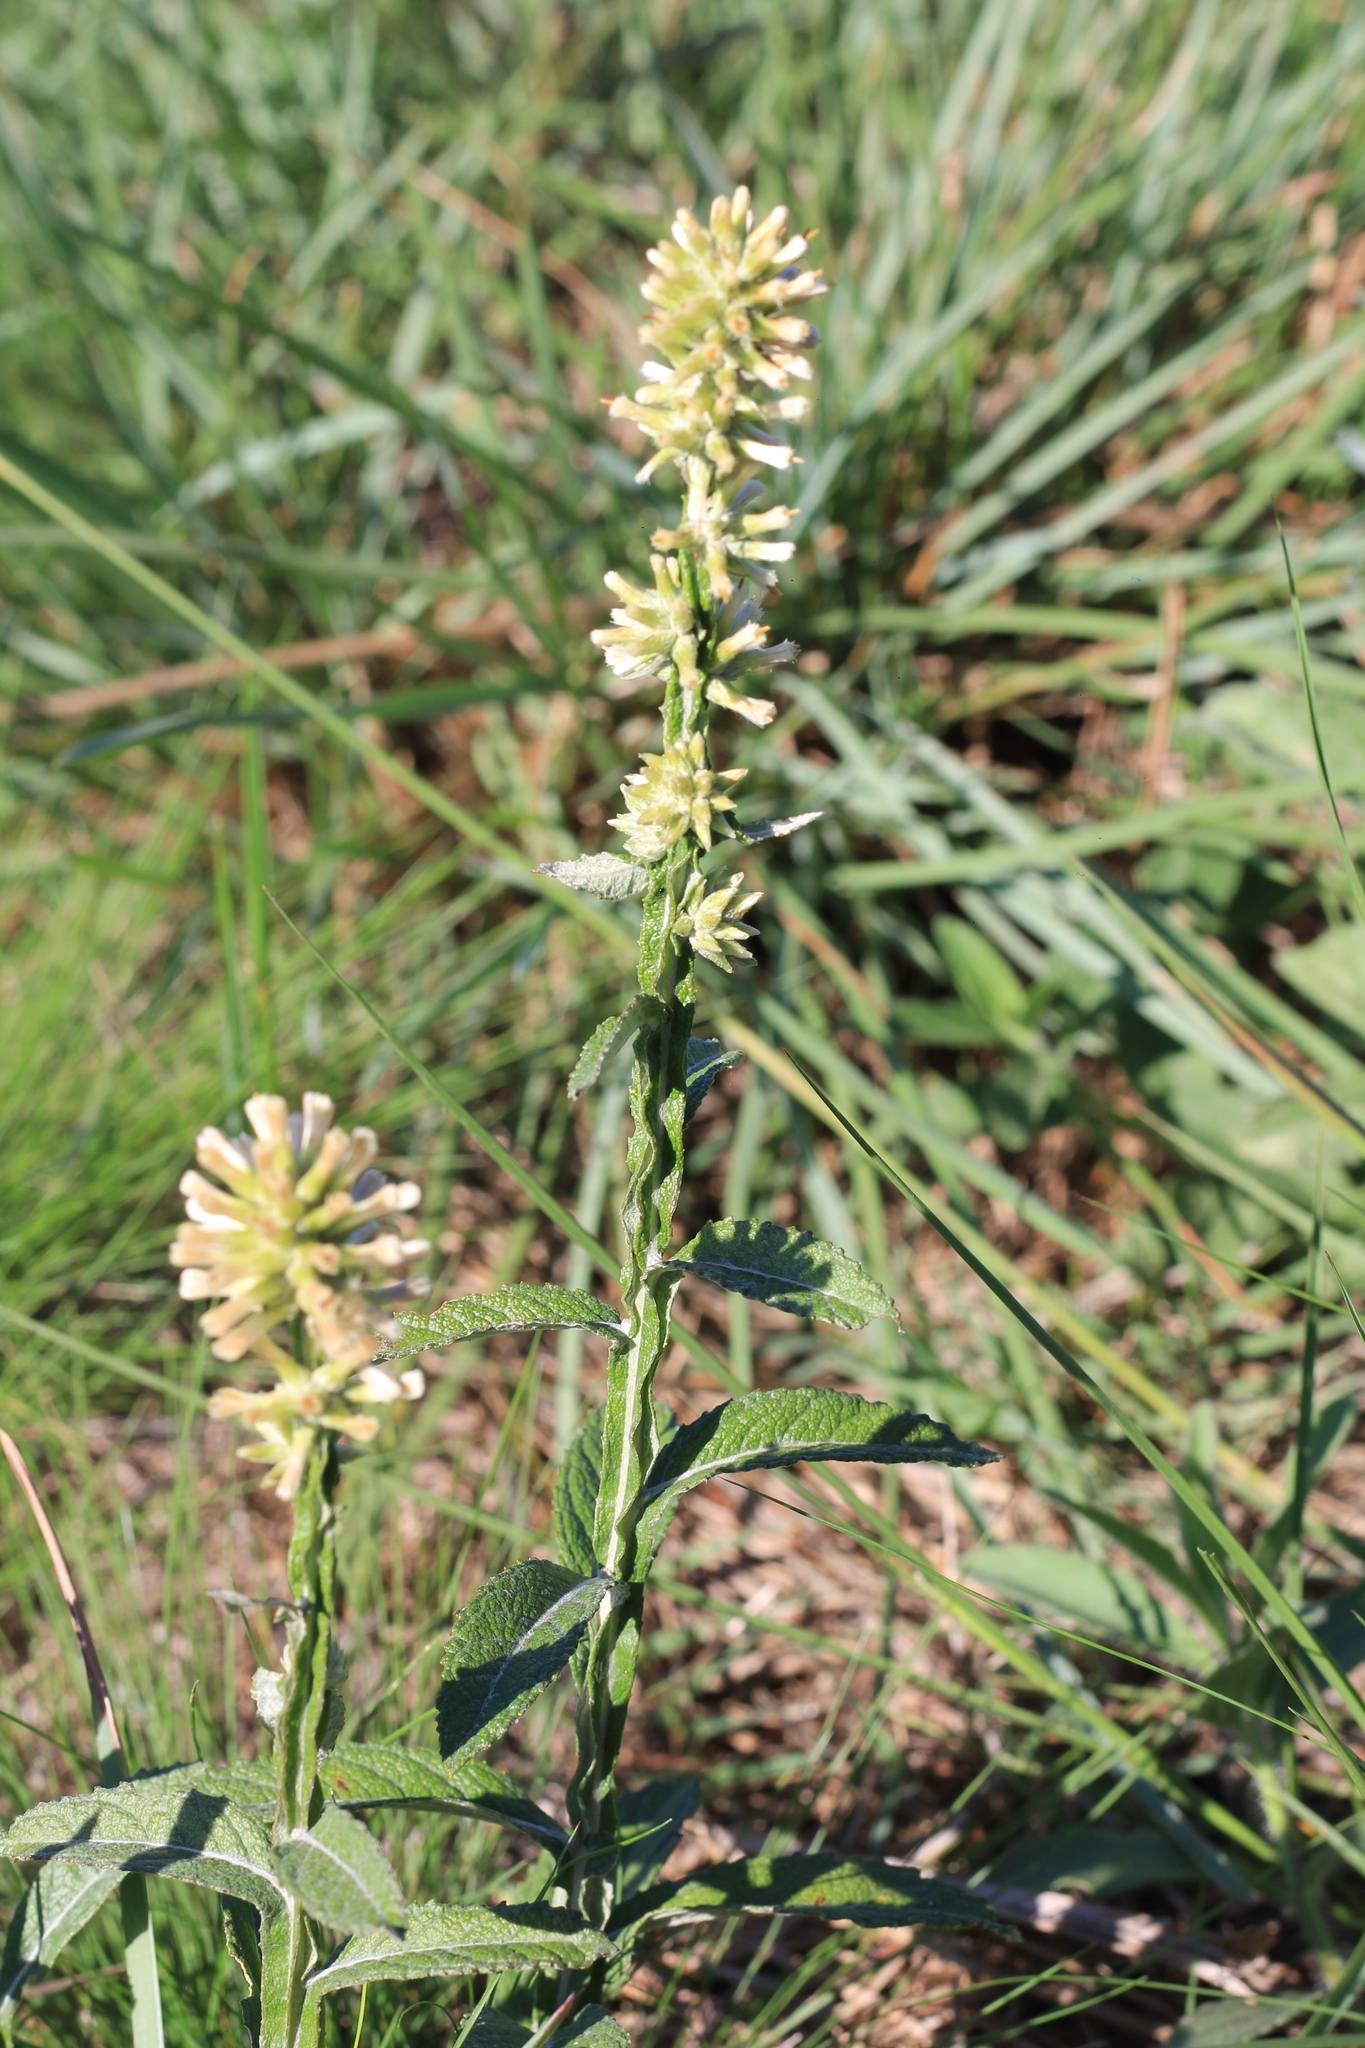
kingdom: Plantae
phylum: Tracheophyta
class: Magnoliopsida
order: Asterales
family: Asteraceae
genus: Pterocaulon
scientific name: Pterocaulon virgatum
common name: Wand blackroot
